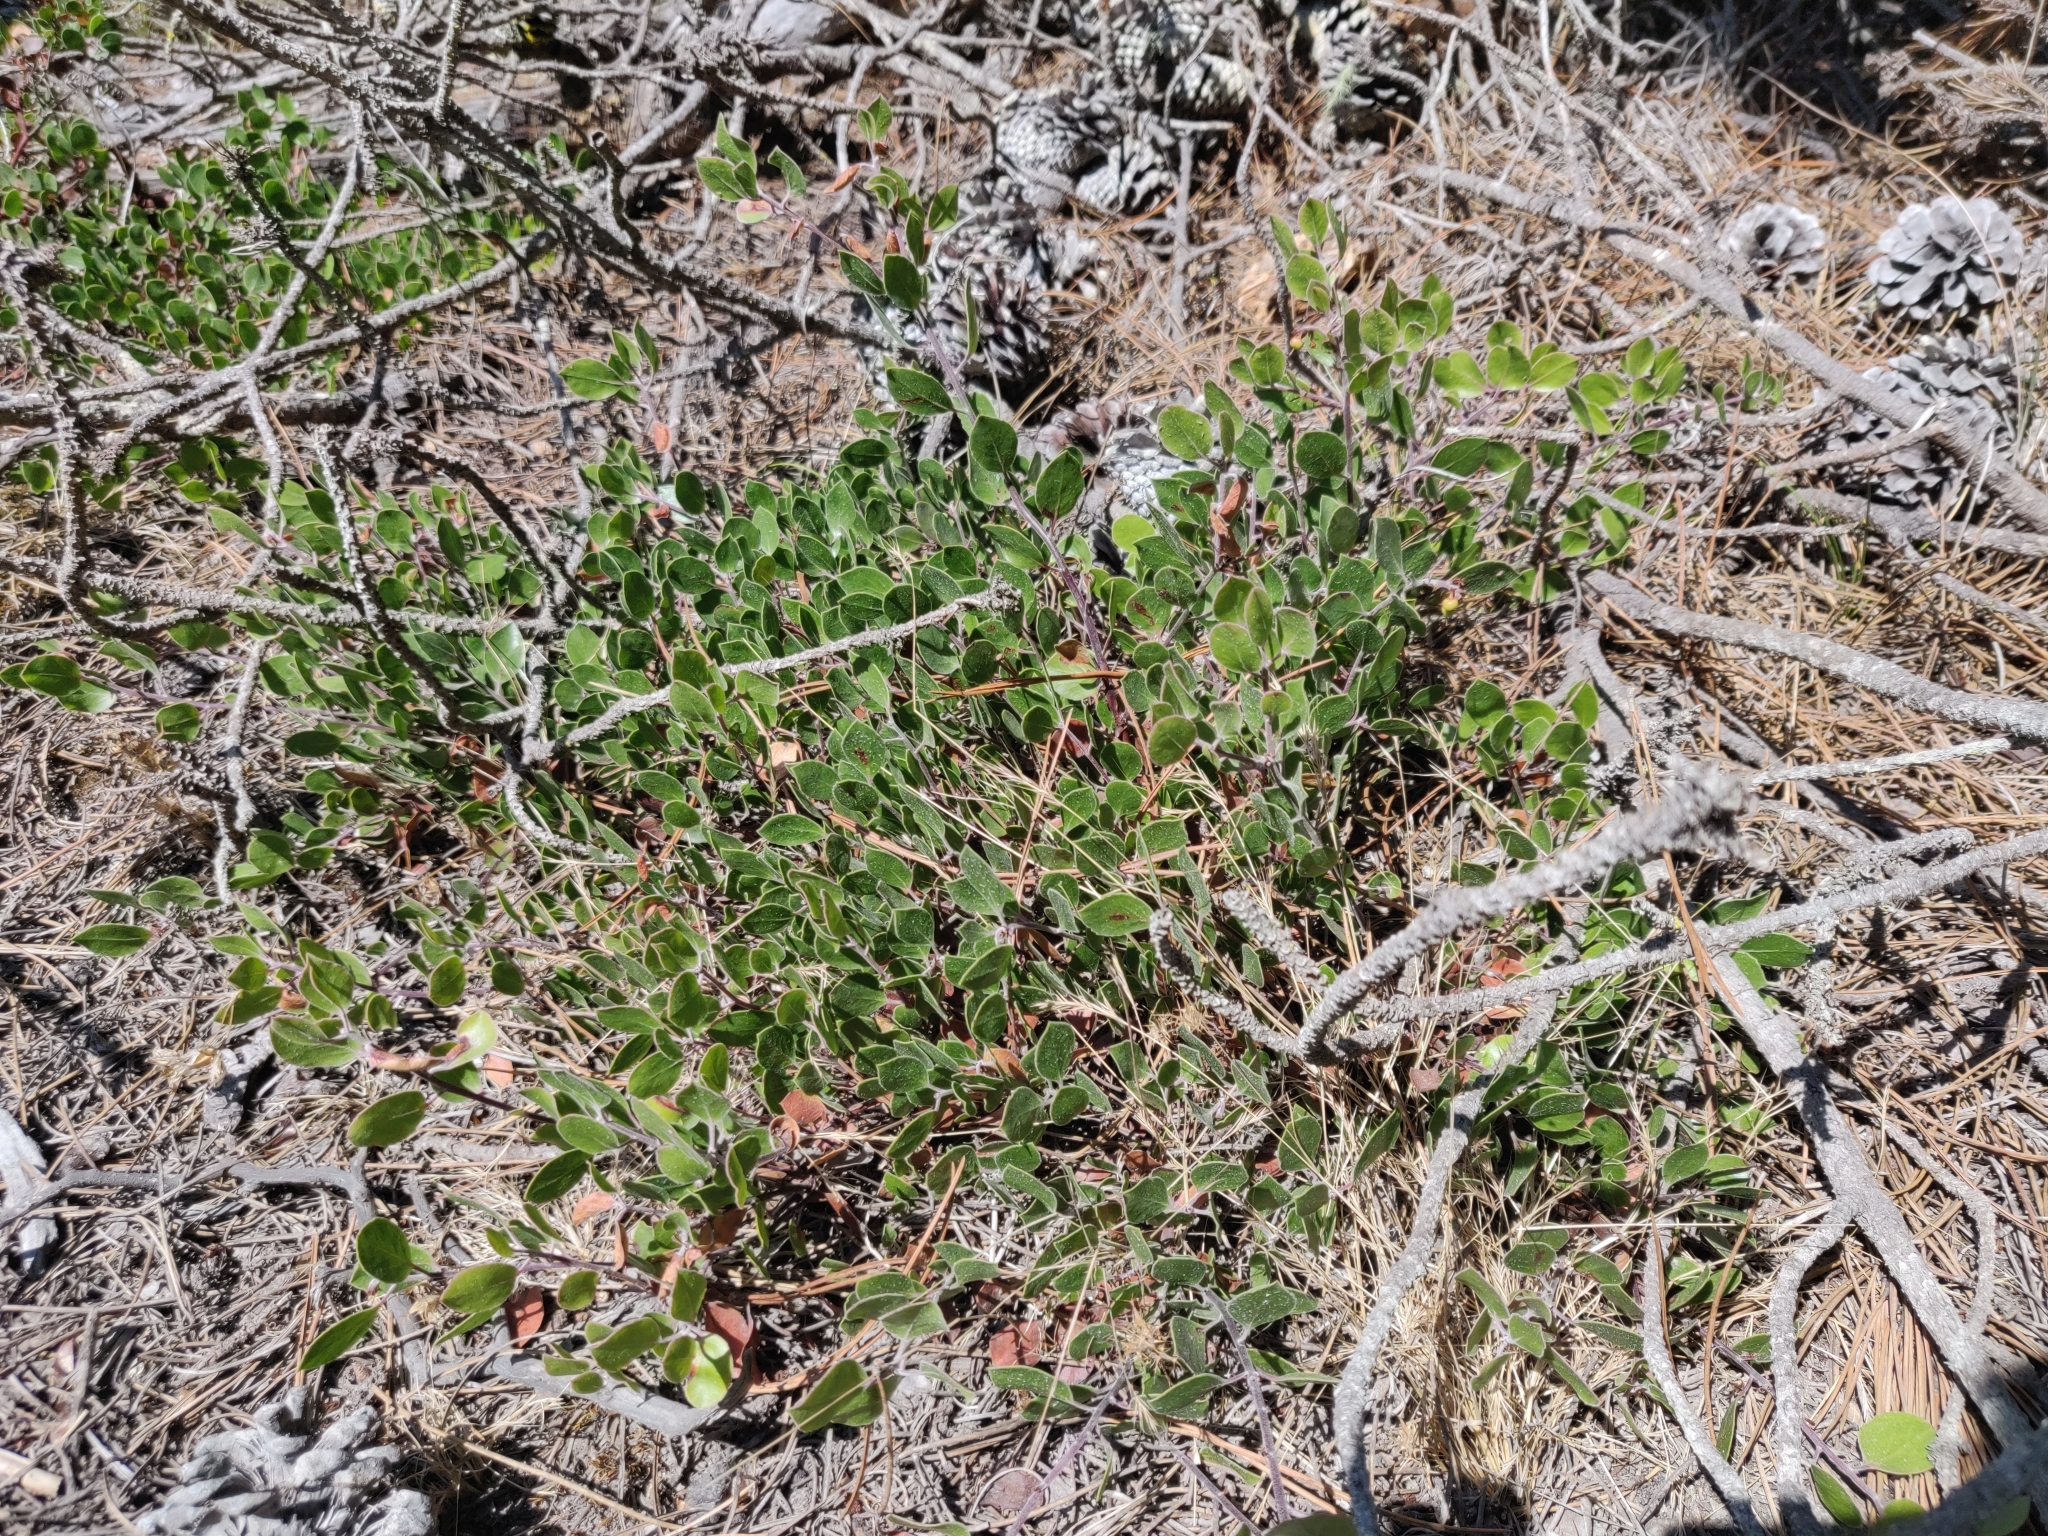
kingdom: Plantae
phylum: Tracheophyta
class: Magnoliopsida
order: Ericales
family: Ericaceae
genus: Arctostaphylos
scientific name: Arctostaphylos hookeri
